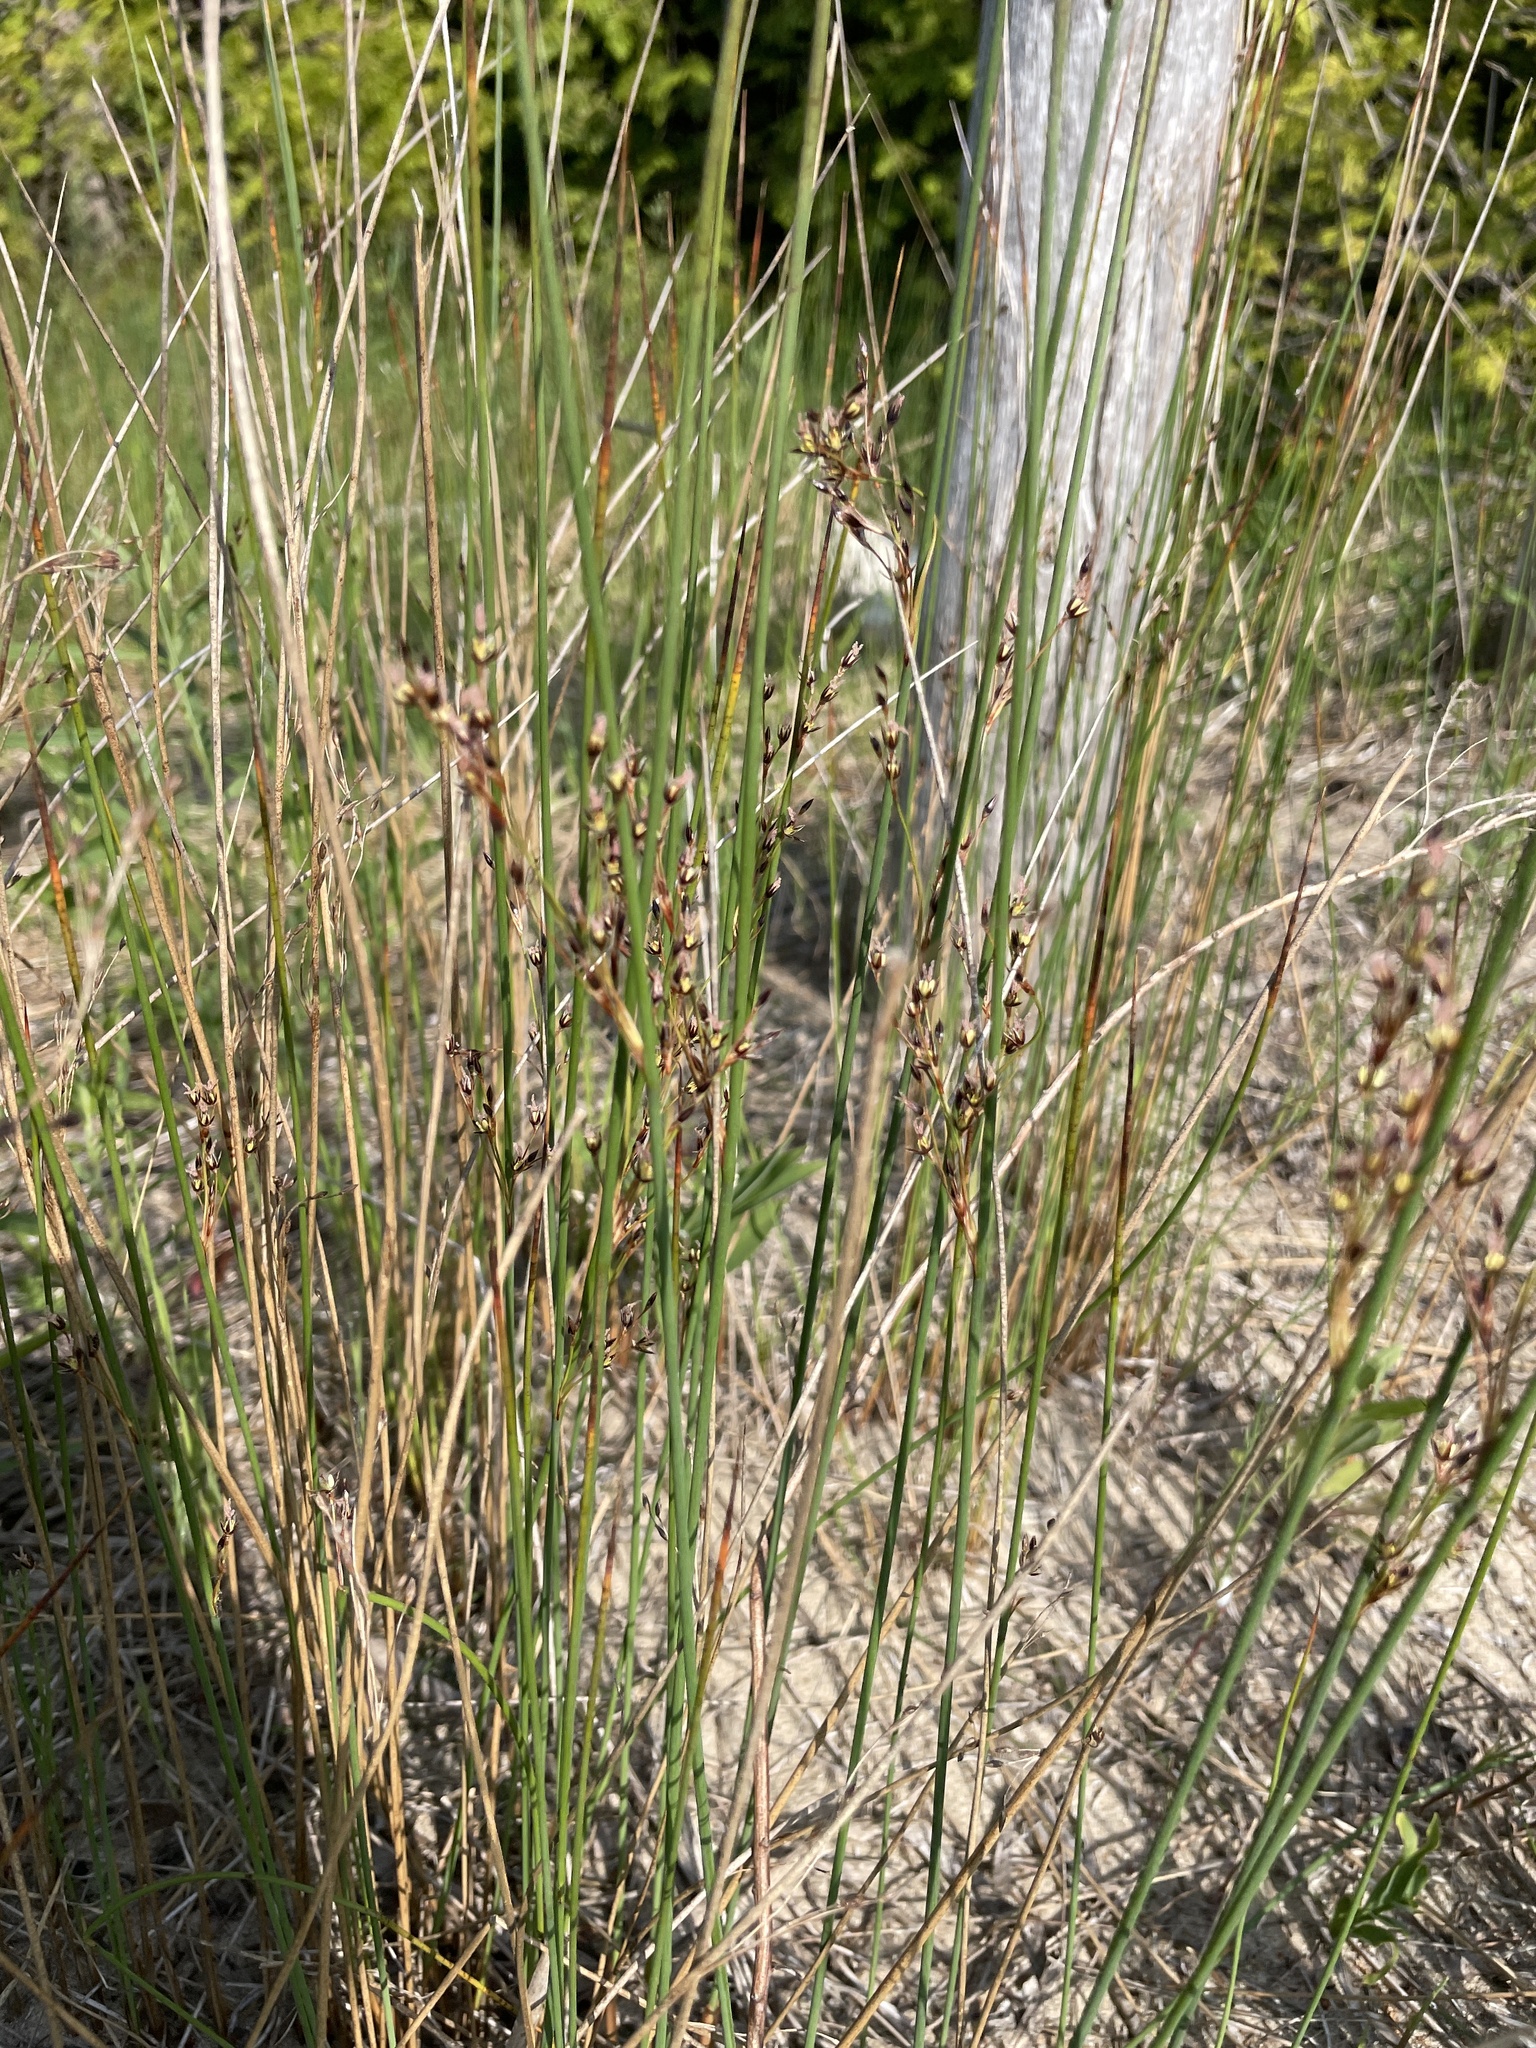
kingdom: Plantae
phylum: Tracheophyta
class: Liliopsida
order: Poales
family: Juncaceae
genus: Juncus
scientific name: Juncus balticus
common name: Baltic rush
